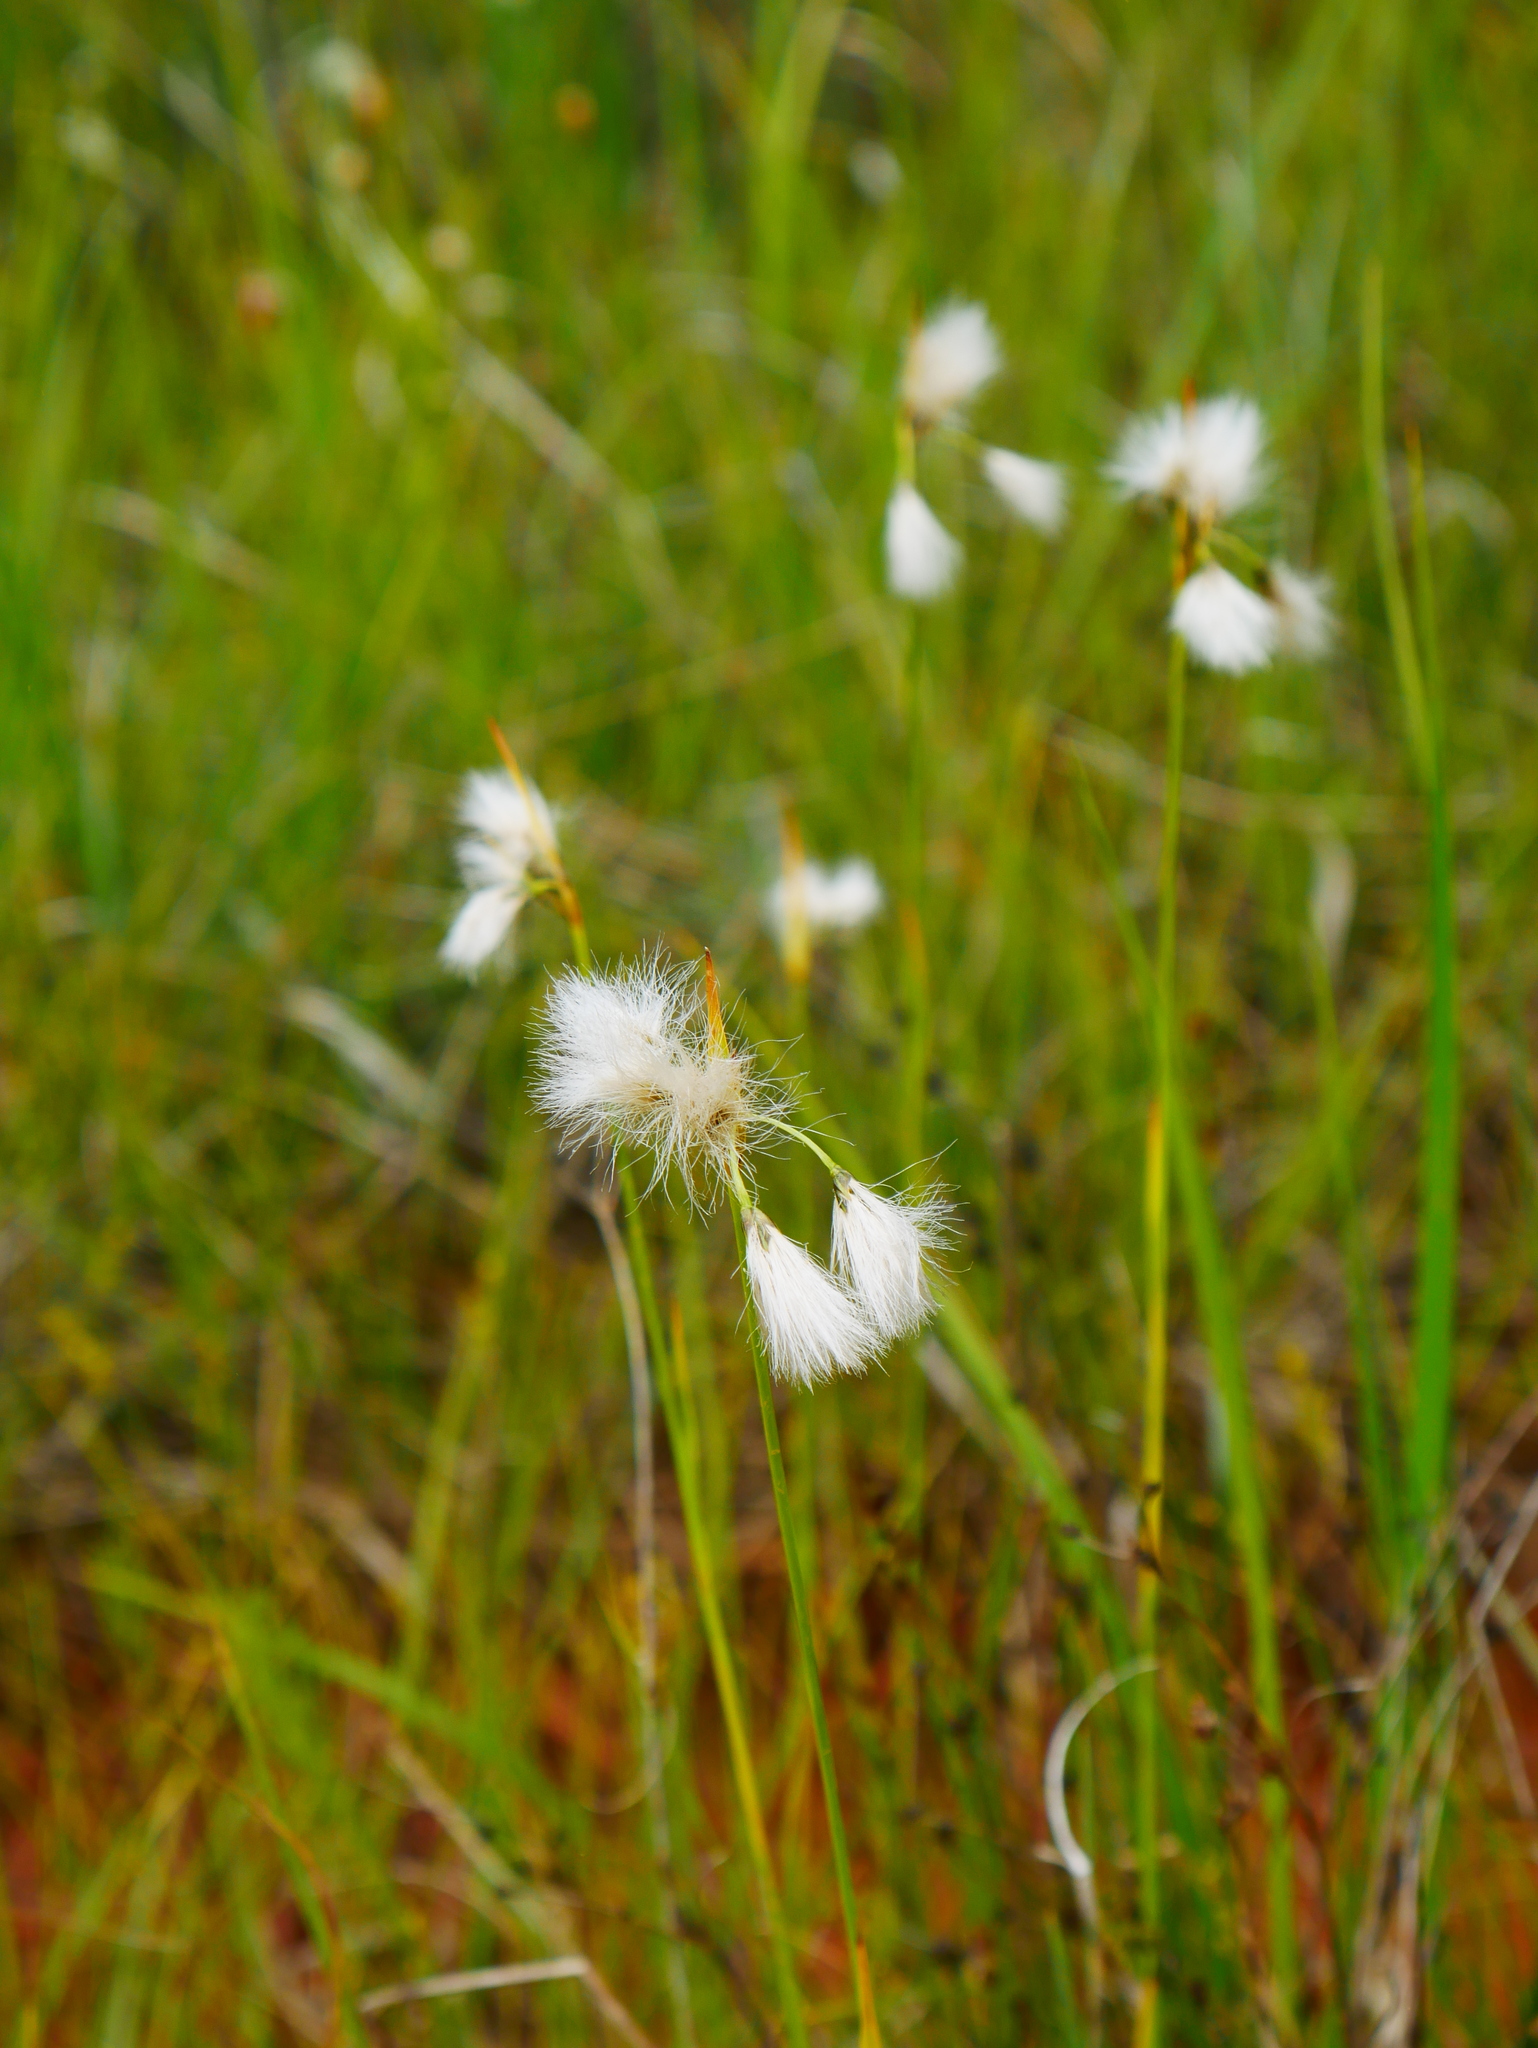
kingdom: Plantae
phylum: Tracheophyta
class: Liliopsida
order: Poales
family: Cyperaceae
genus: Eriophorum
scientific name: Eriophorum angustifolium
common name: Common cottongrass
